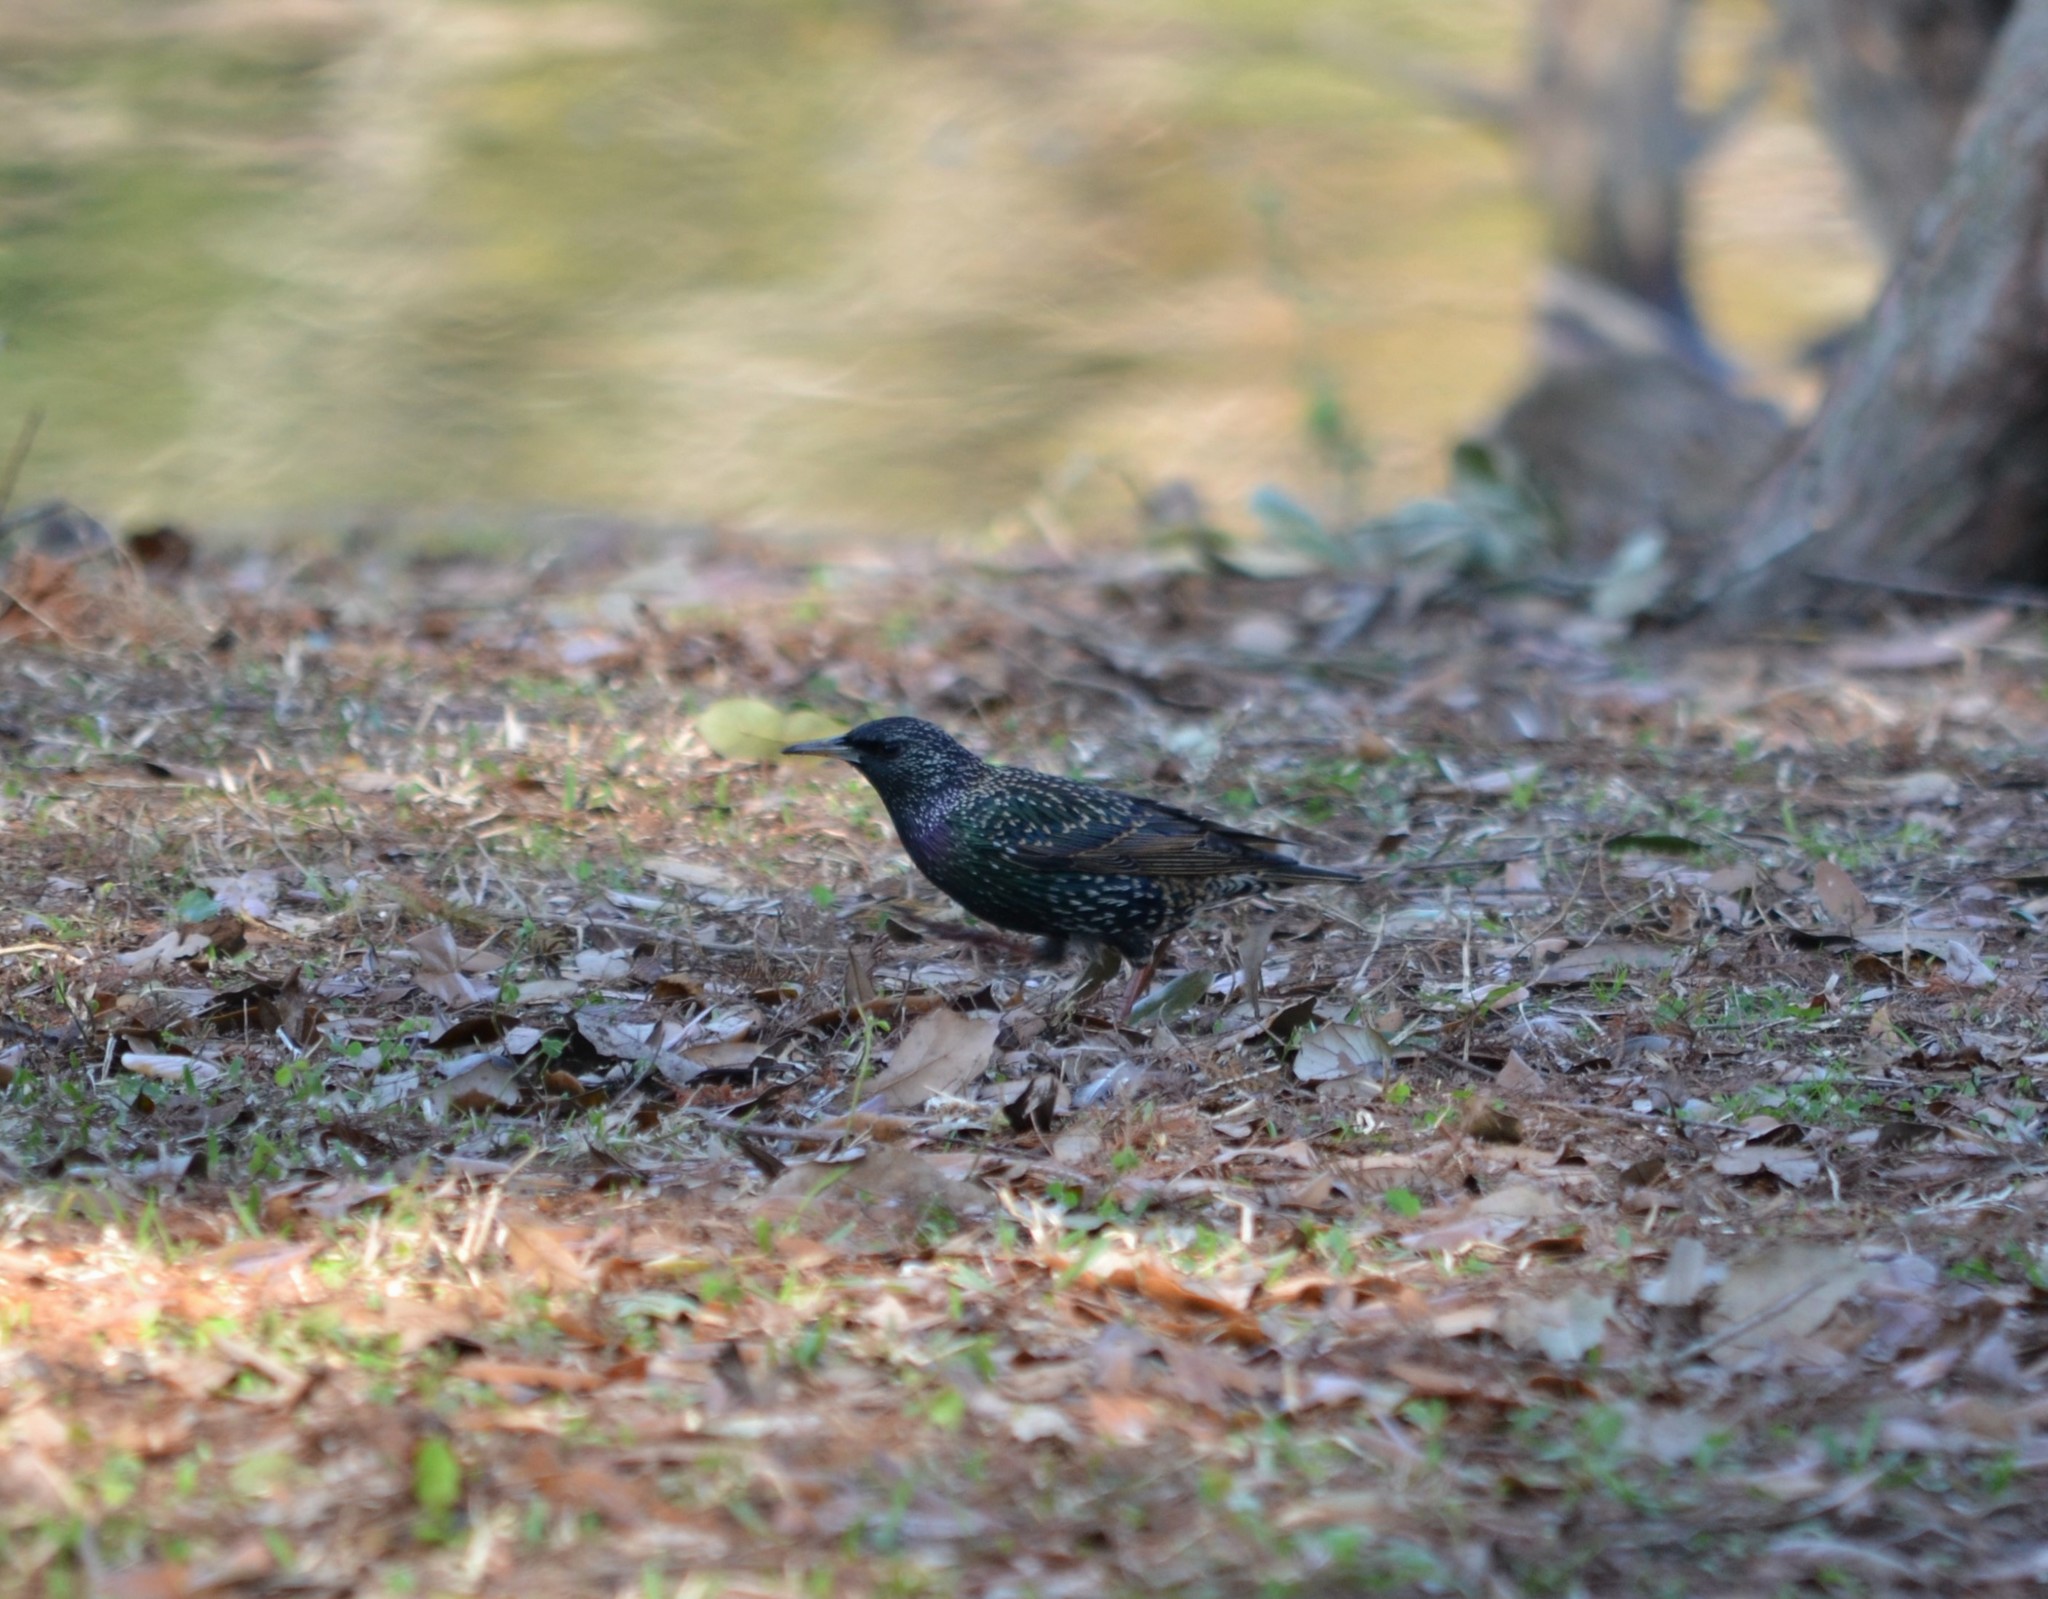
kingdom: Animalia
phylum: Chordata
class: Aves
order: Passeriformes
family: Sturnidae
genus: Sturnus
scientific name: Sturnus vulgaris
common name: Common starling
